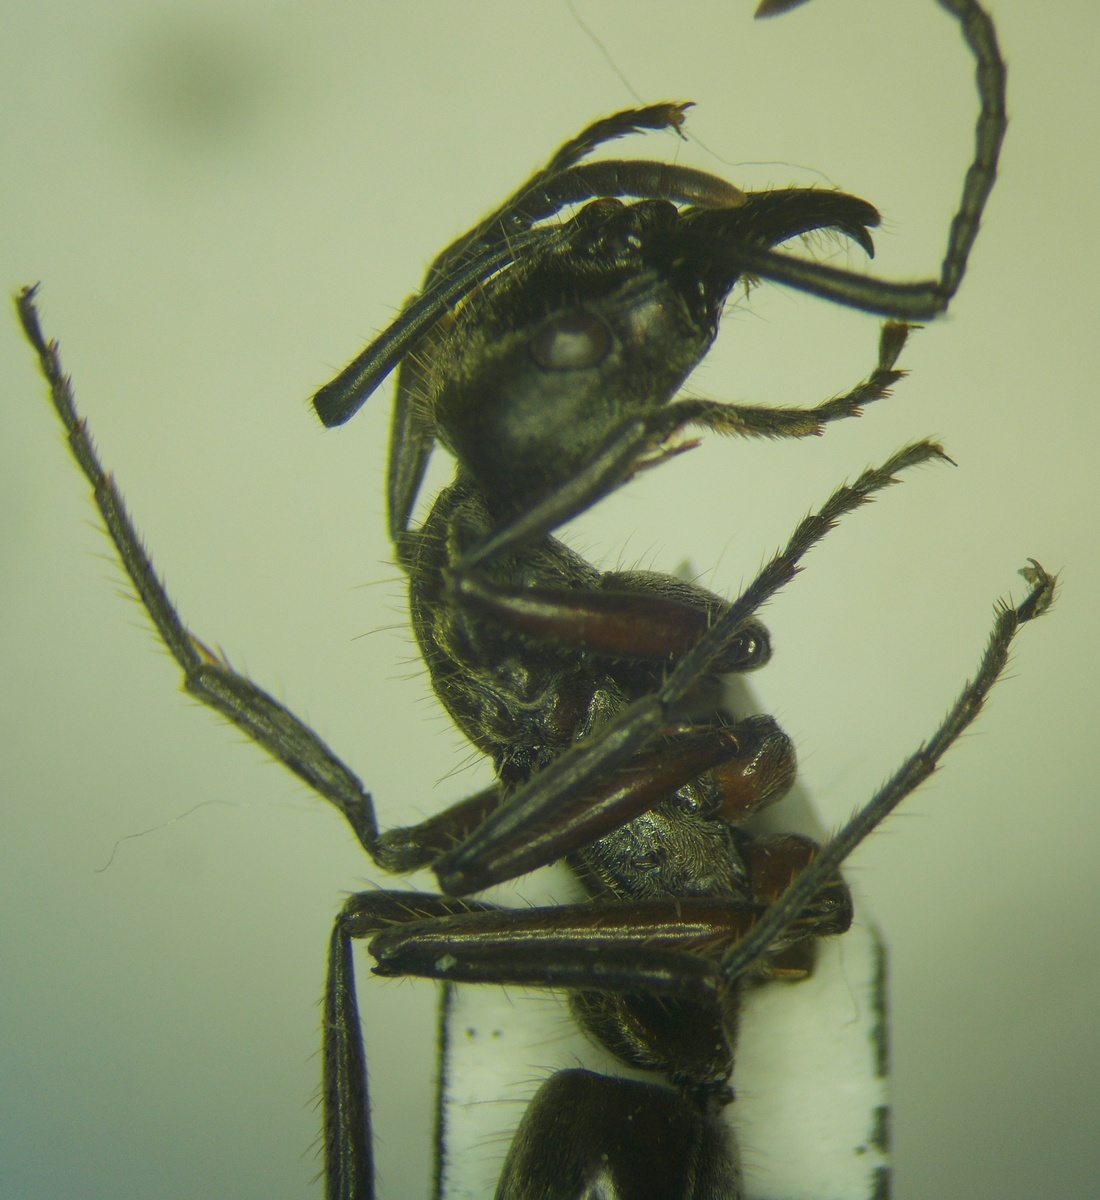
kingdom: Animalia
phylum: Arthropoda
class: Insecta
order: Hymenoptera
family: Formicidae
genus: Pachycondyla
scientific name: Pachycondyla villosa
